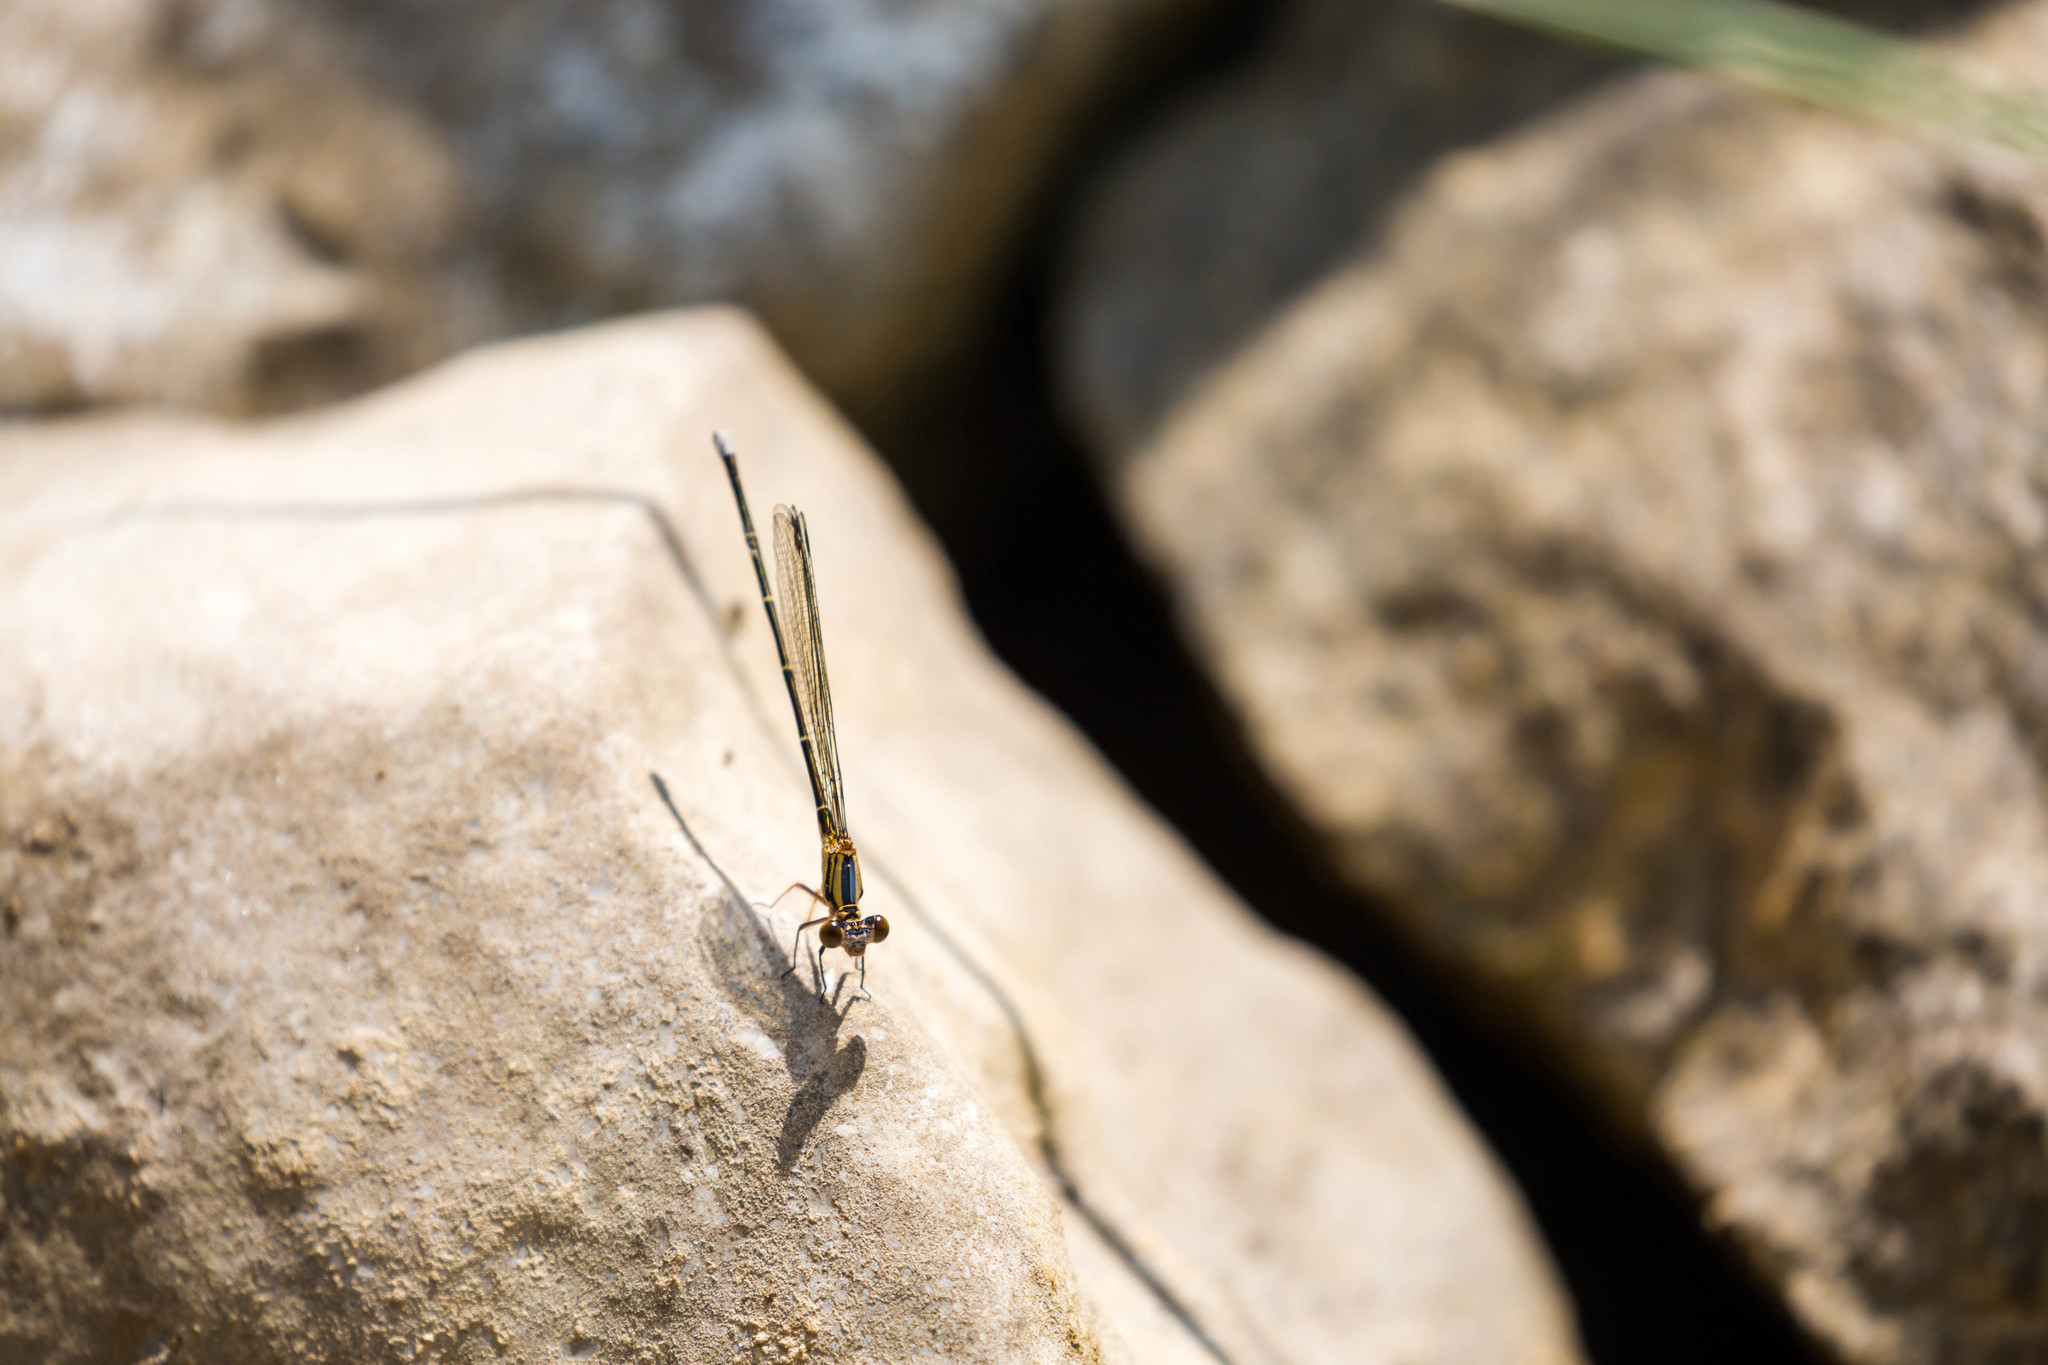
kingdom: Animalia
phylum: Arthropoda
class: Insecta
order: Odonata
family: Coenagrionidae
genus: Argia
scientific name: Argia moesta
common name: Powdered dancer
